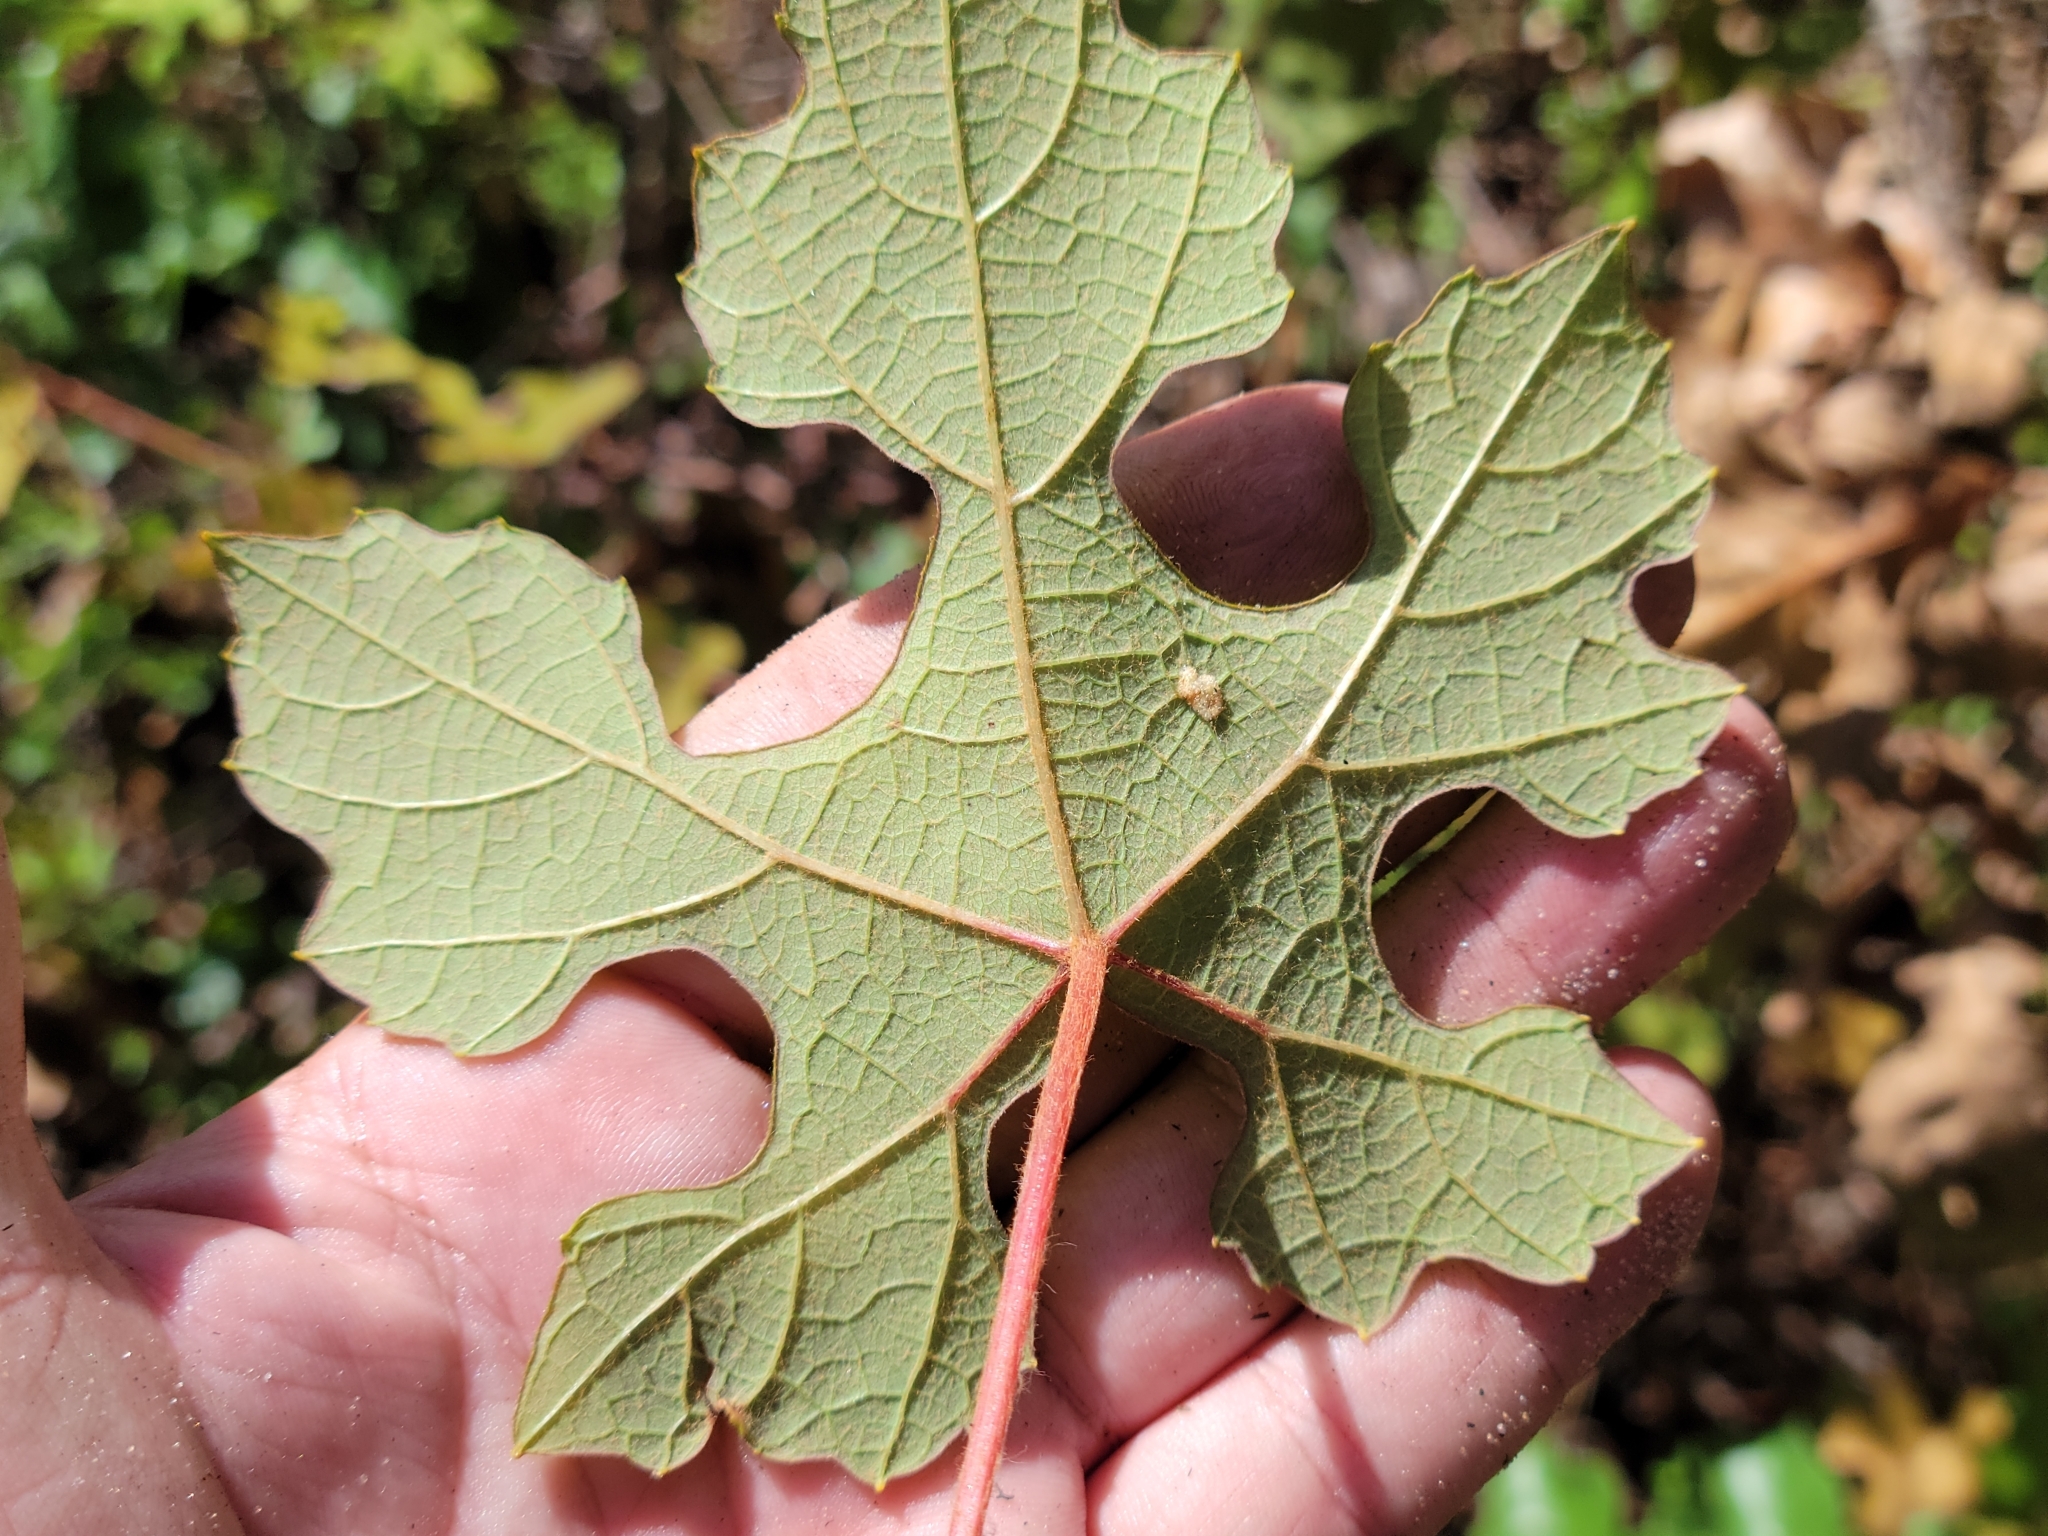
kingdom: Plantae
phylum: Tracheophyta
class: Magnoliopsida
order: Vitales
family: Vitaceae
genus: Vitis
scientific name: Vitis aestivalis
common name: Pigeon grape
